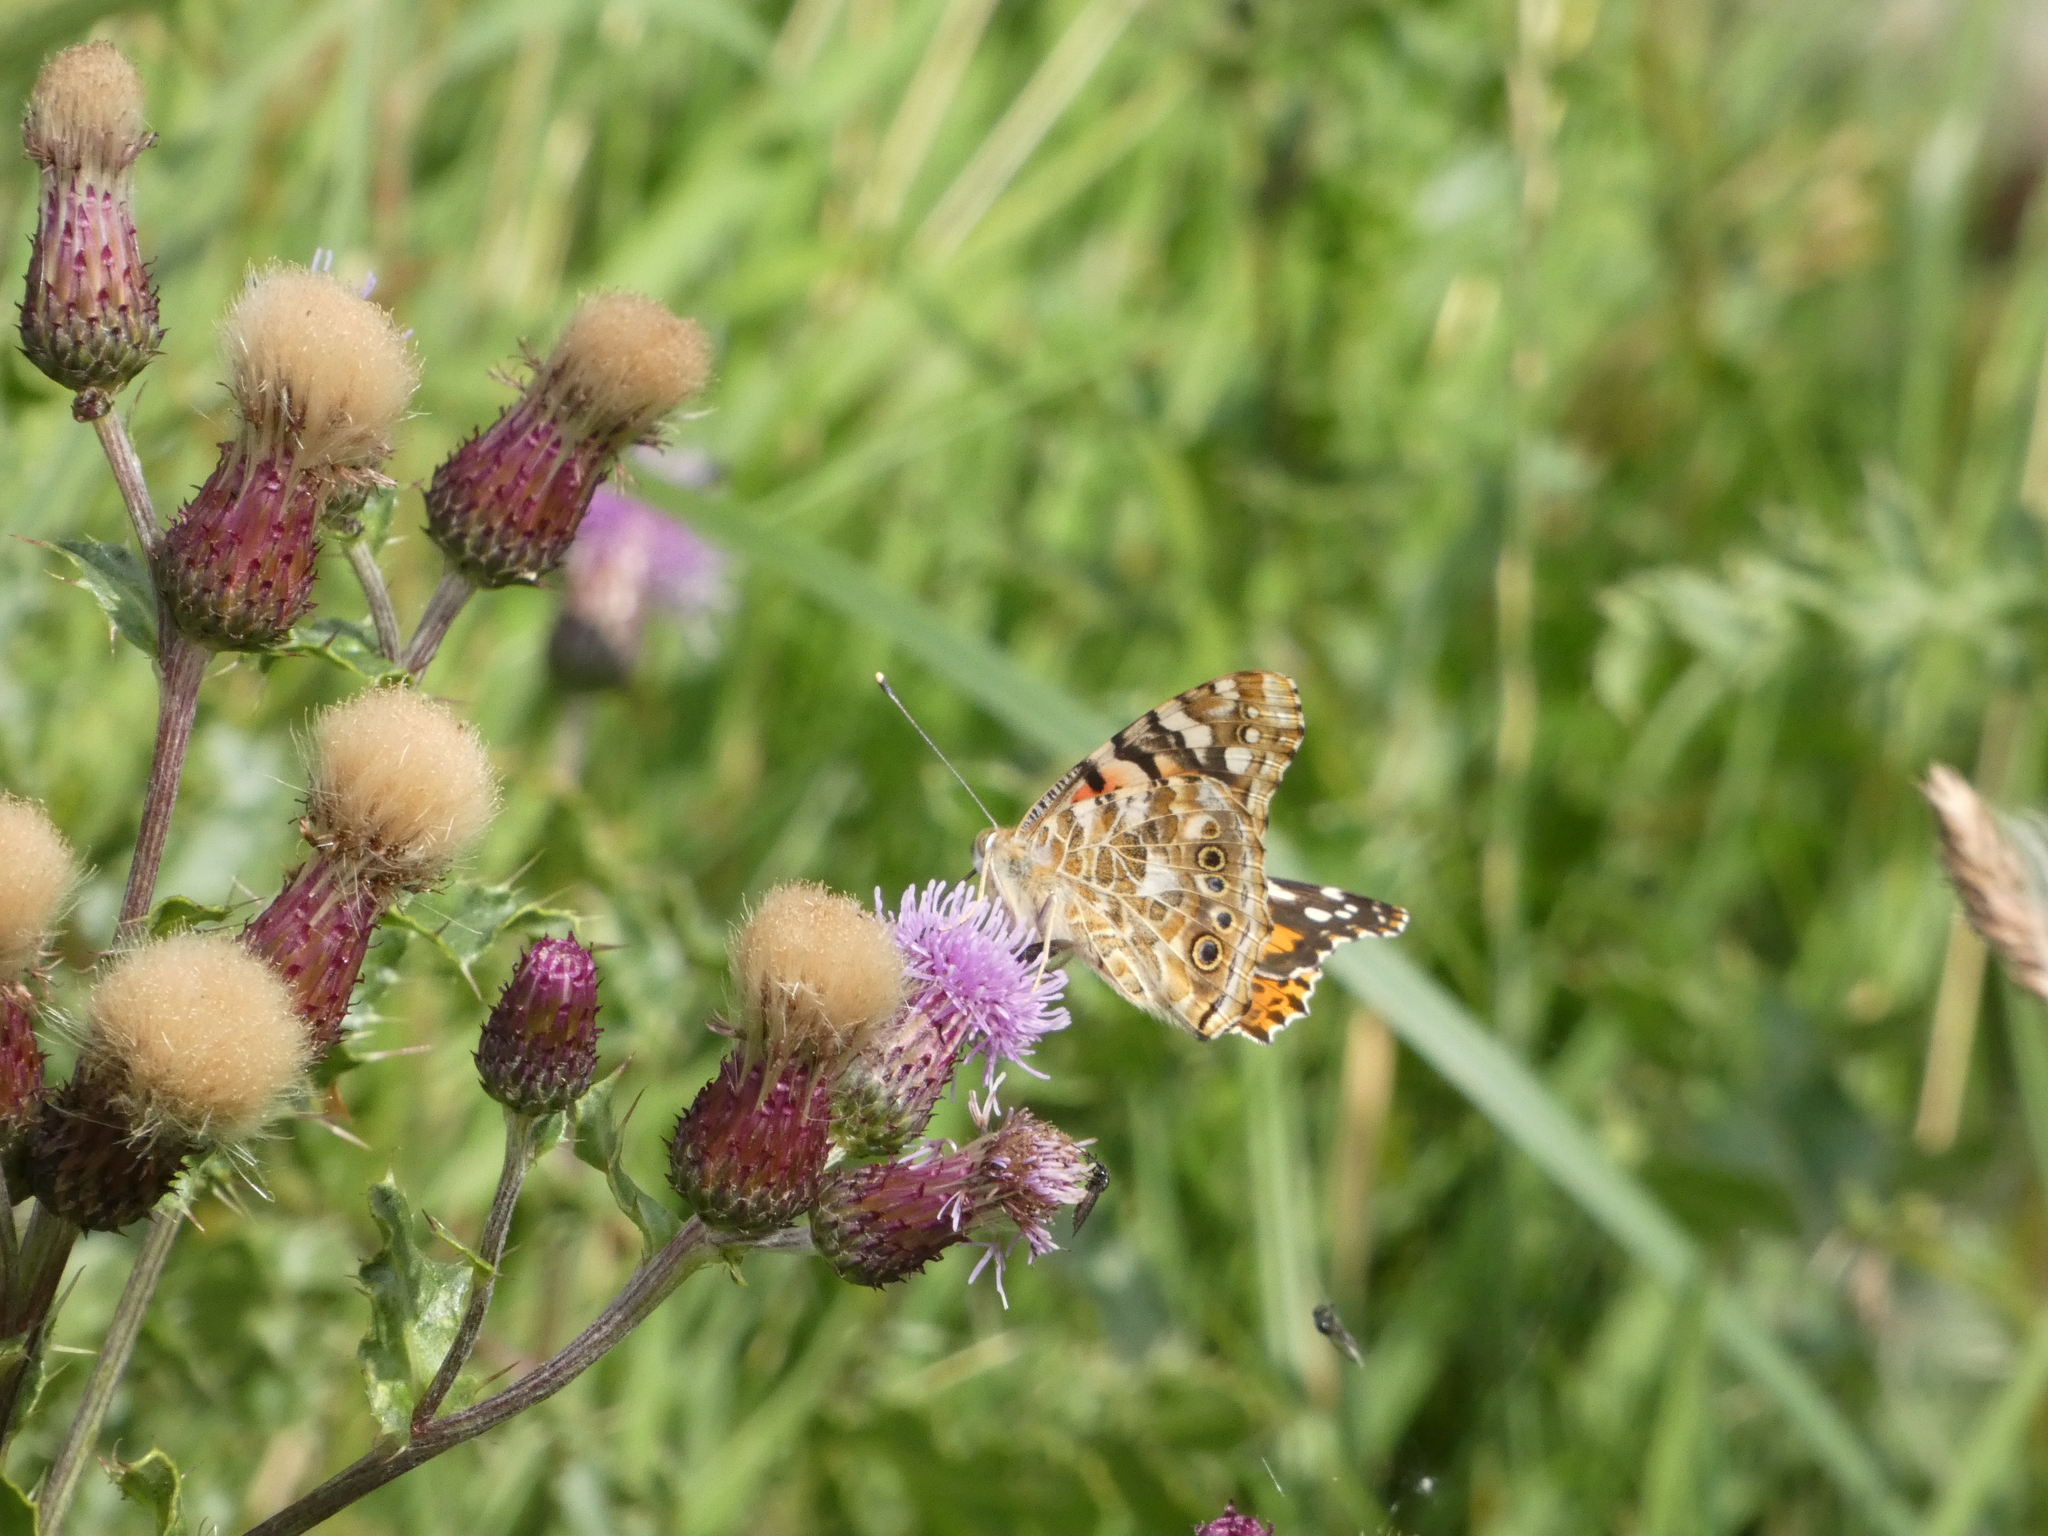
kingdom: Animalia
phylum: Arthropoda
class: Insecta
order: Lepidoptera
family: Nymphalidae
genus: Vanessa
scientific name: Vanessa cardui
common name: Painted lady
